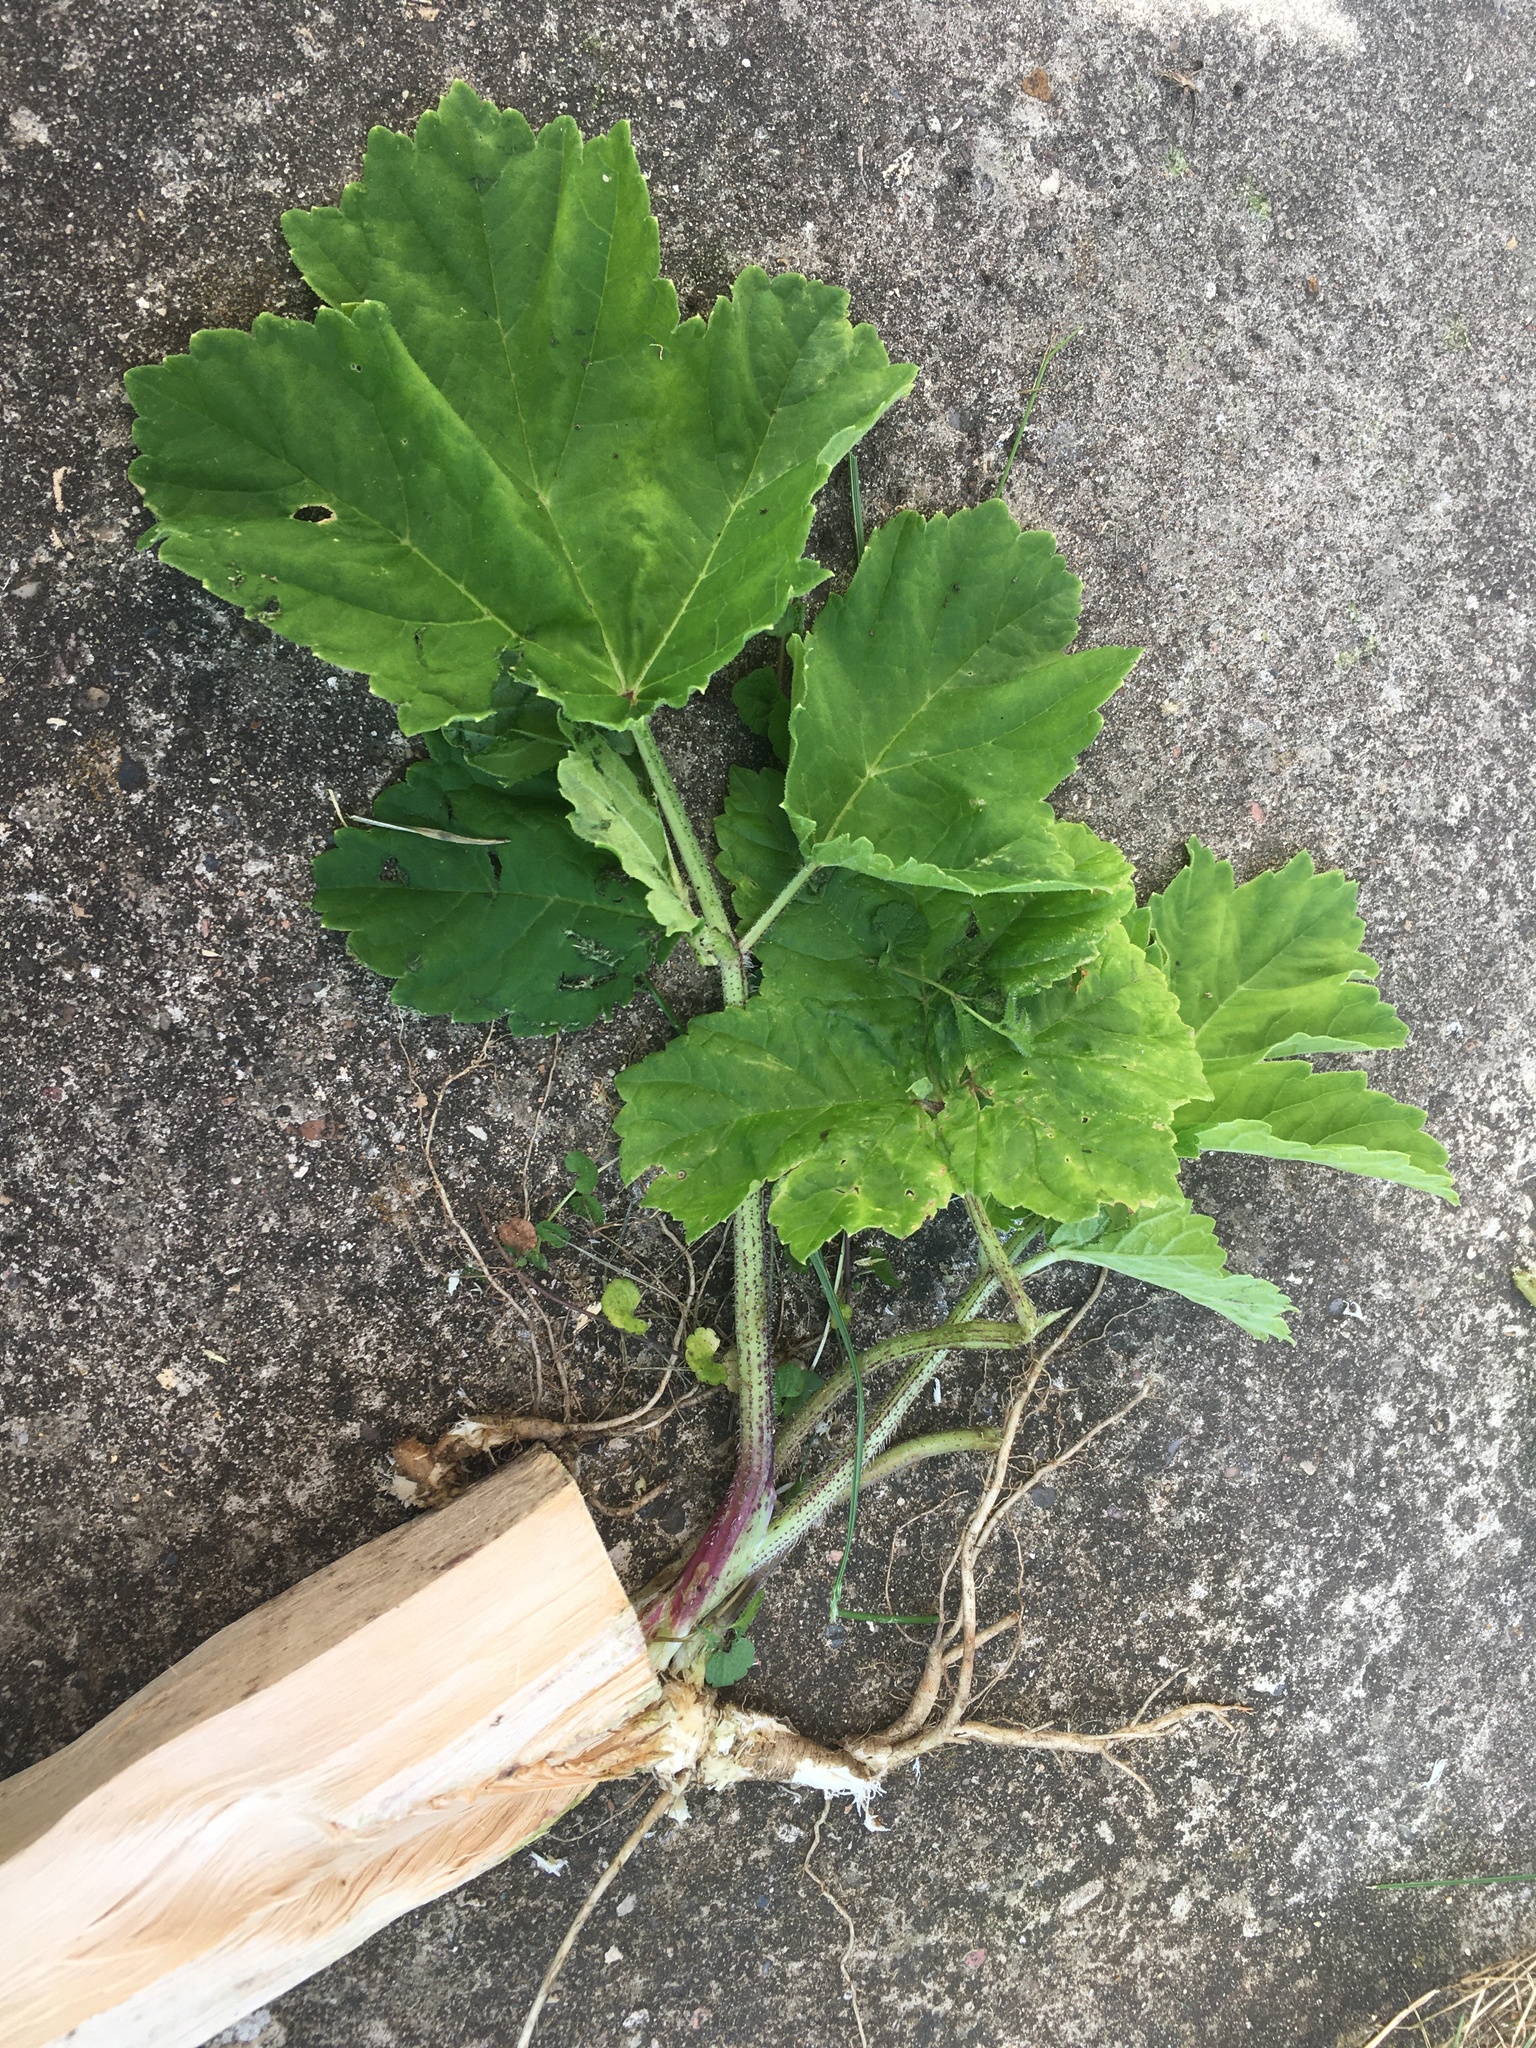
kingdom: Plantae
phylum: Tracheophyta
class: Magnoliopsida
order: Apiales
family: Apiaceae
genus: Heracleum
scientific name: Heracleum sosnowskyi
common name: Sosnowsky's hogweed
